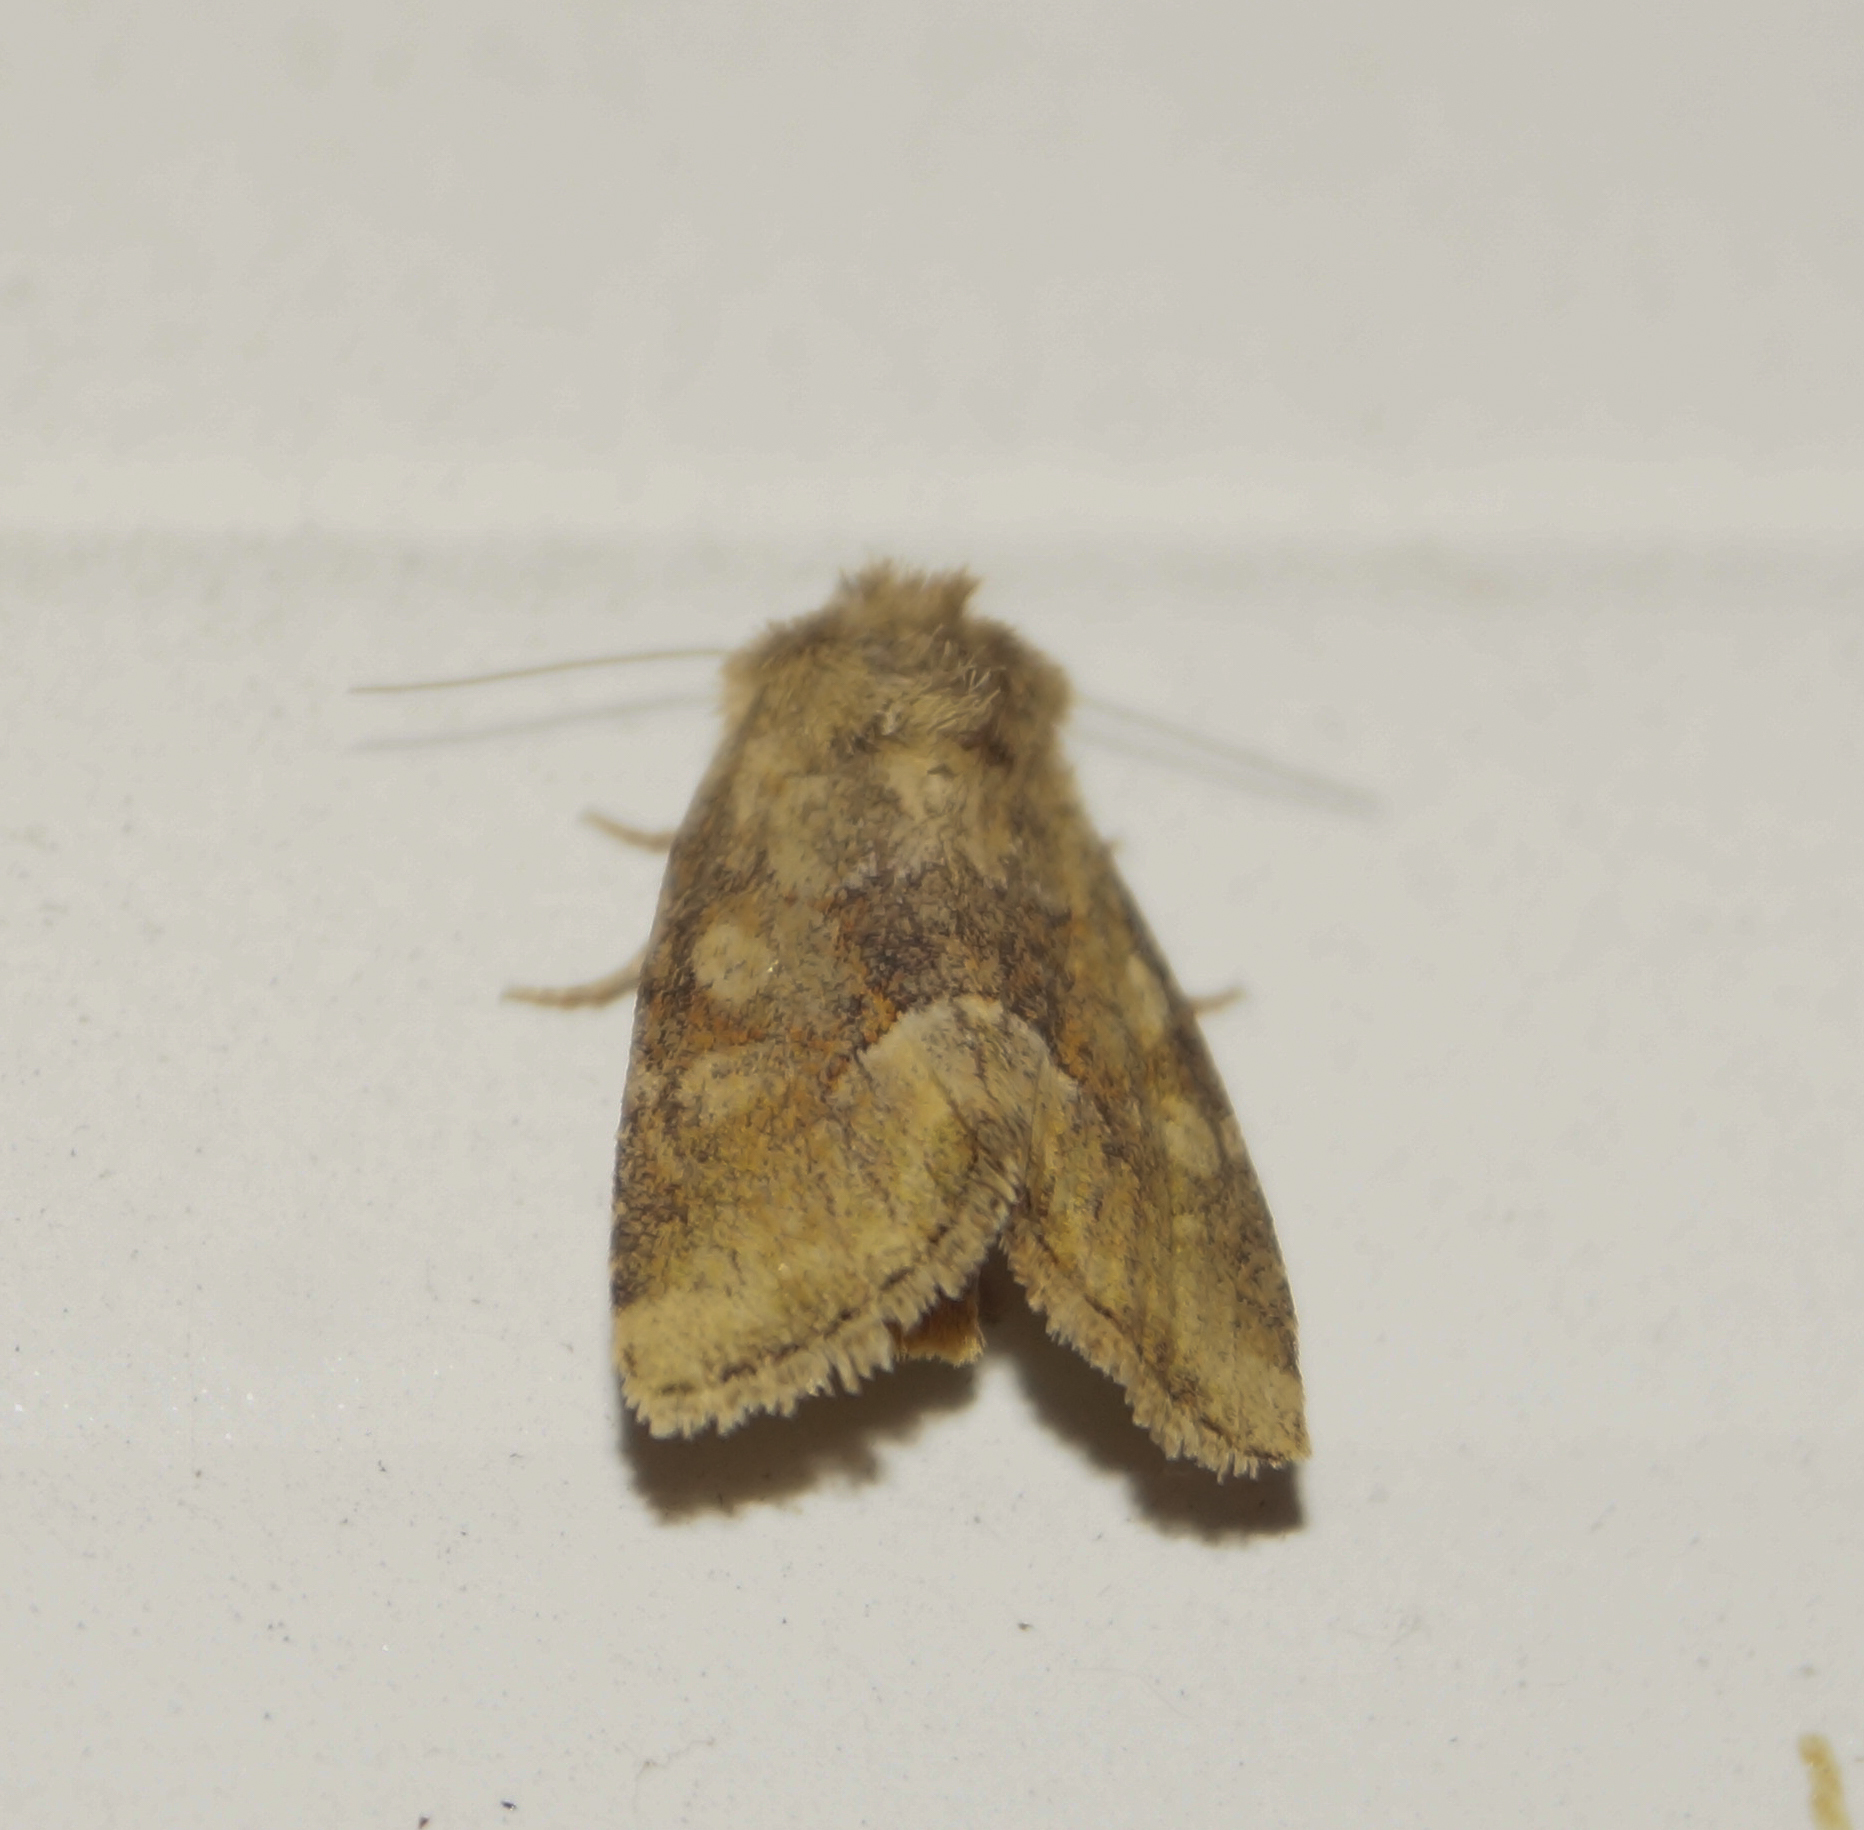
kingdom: Animalia
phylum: Arthropoda
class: Insecta
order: Lepidoptera
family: Noctuidae
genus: Oligia
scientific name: Oligia fasciuncula
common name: Middle-barred minor
